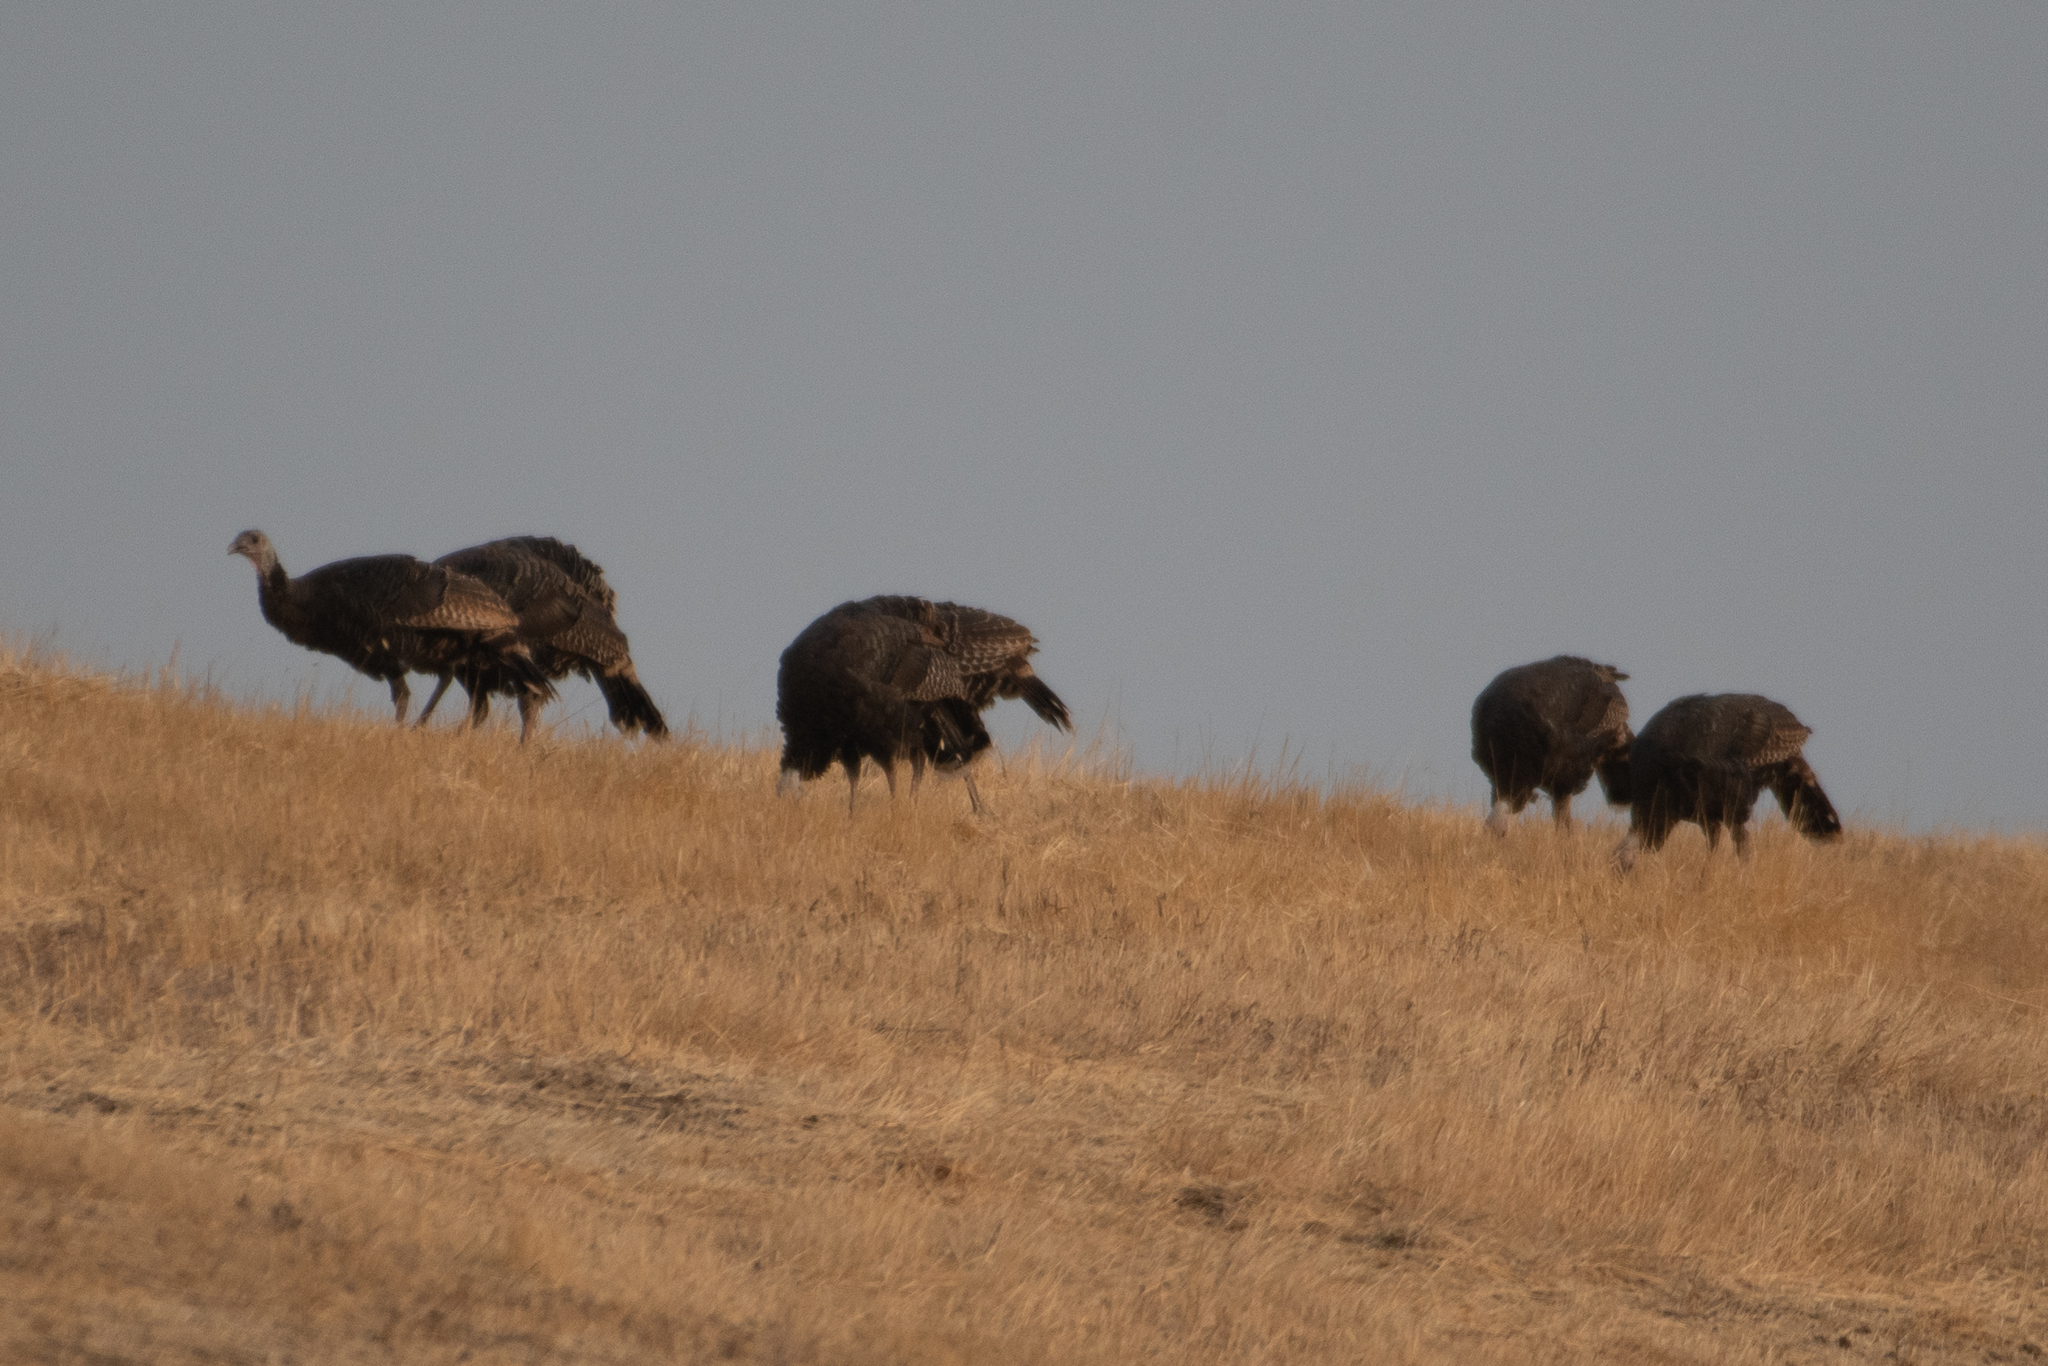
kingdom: Animalia
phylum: Chordata
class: Aves
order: Galliformes
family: Phasianidae
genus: Meleagris
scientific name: Meleagris gallopavo
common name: Wild turkey
